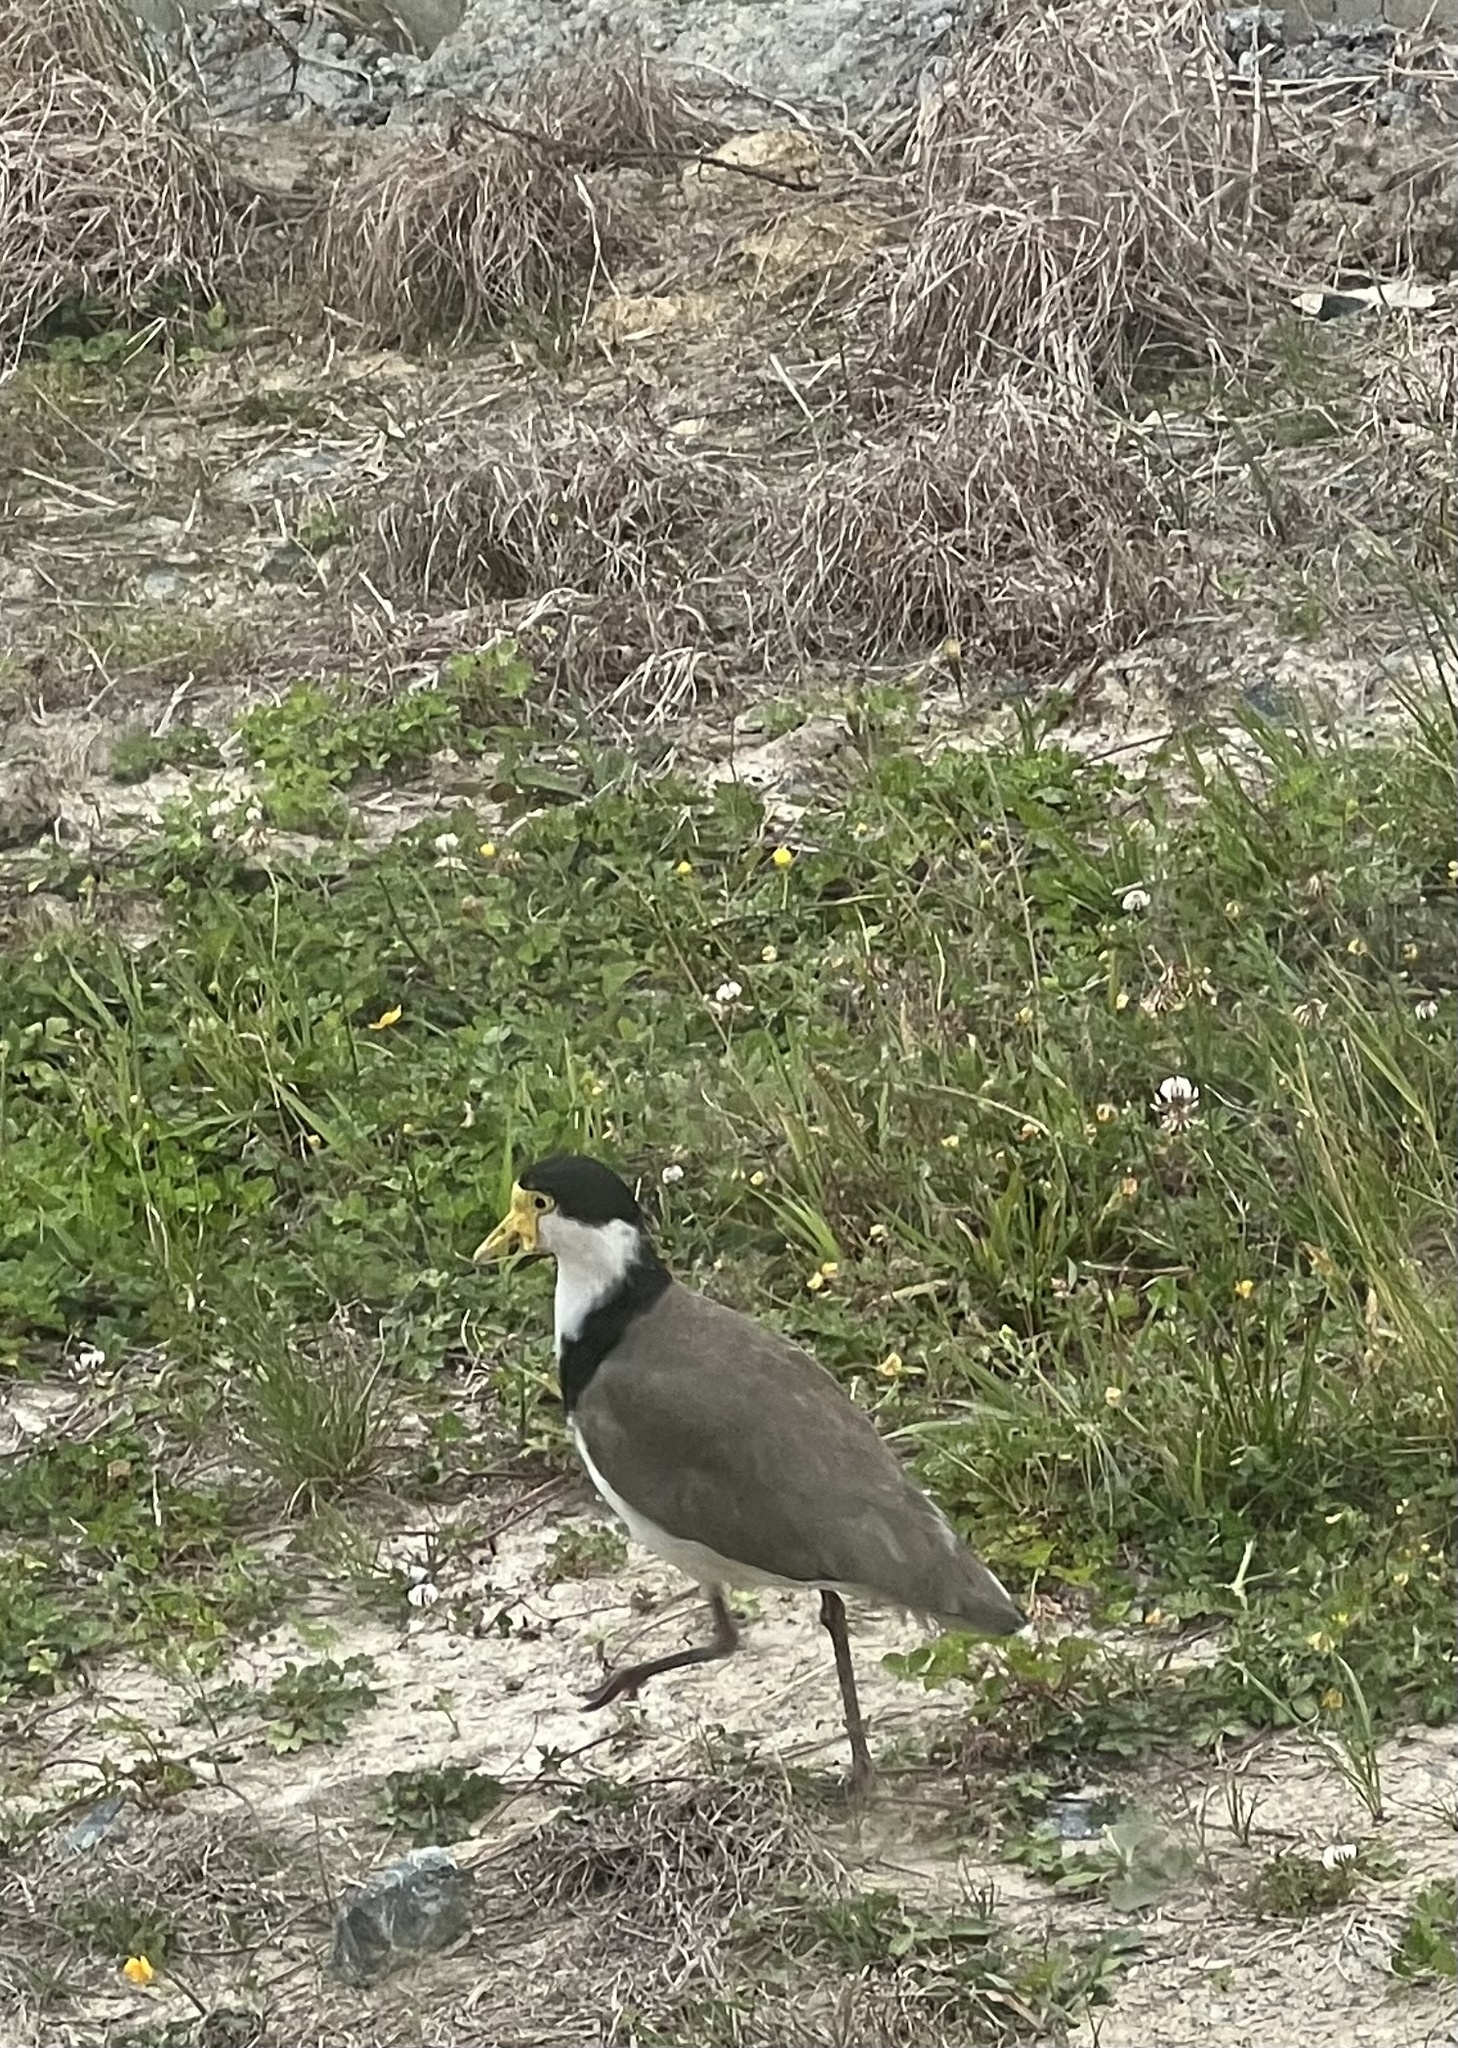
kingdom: Animalia
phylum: Chordata
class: Aves
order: Charadriiformes
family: Charadriidae
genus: Vanellus
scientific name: Vanellus miles
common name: Masked lapwing
